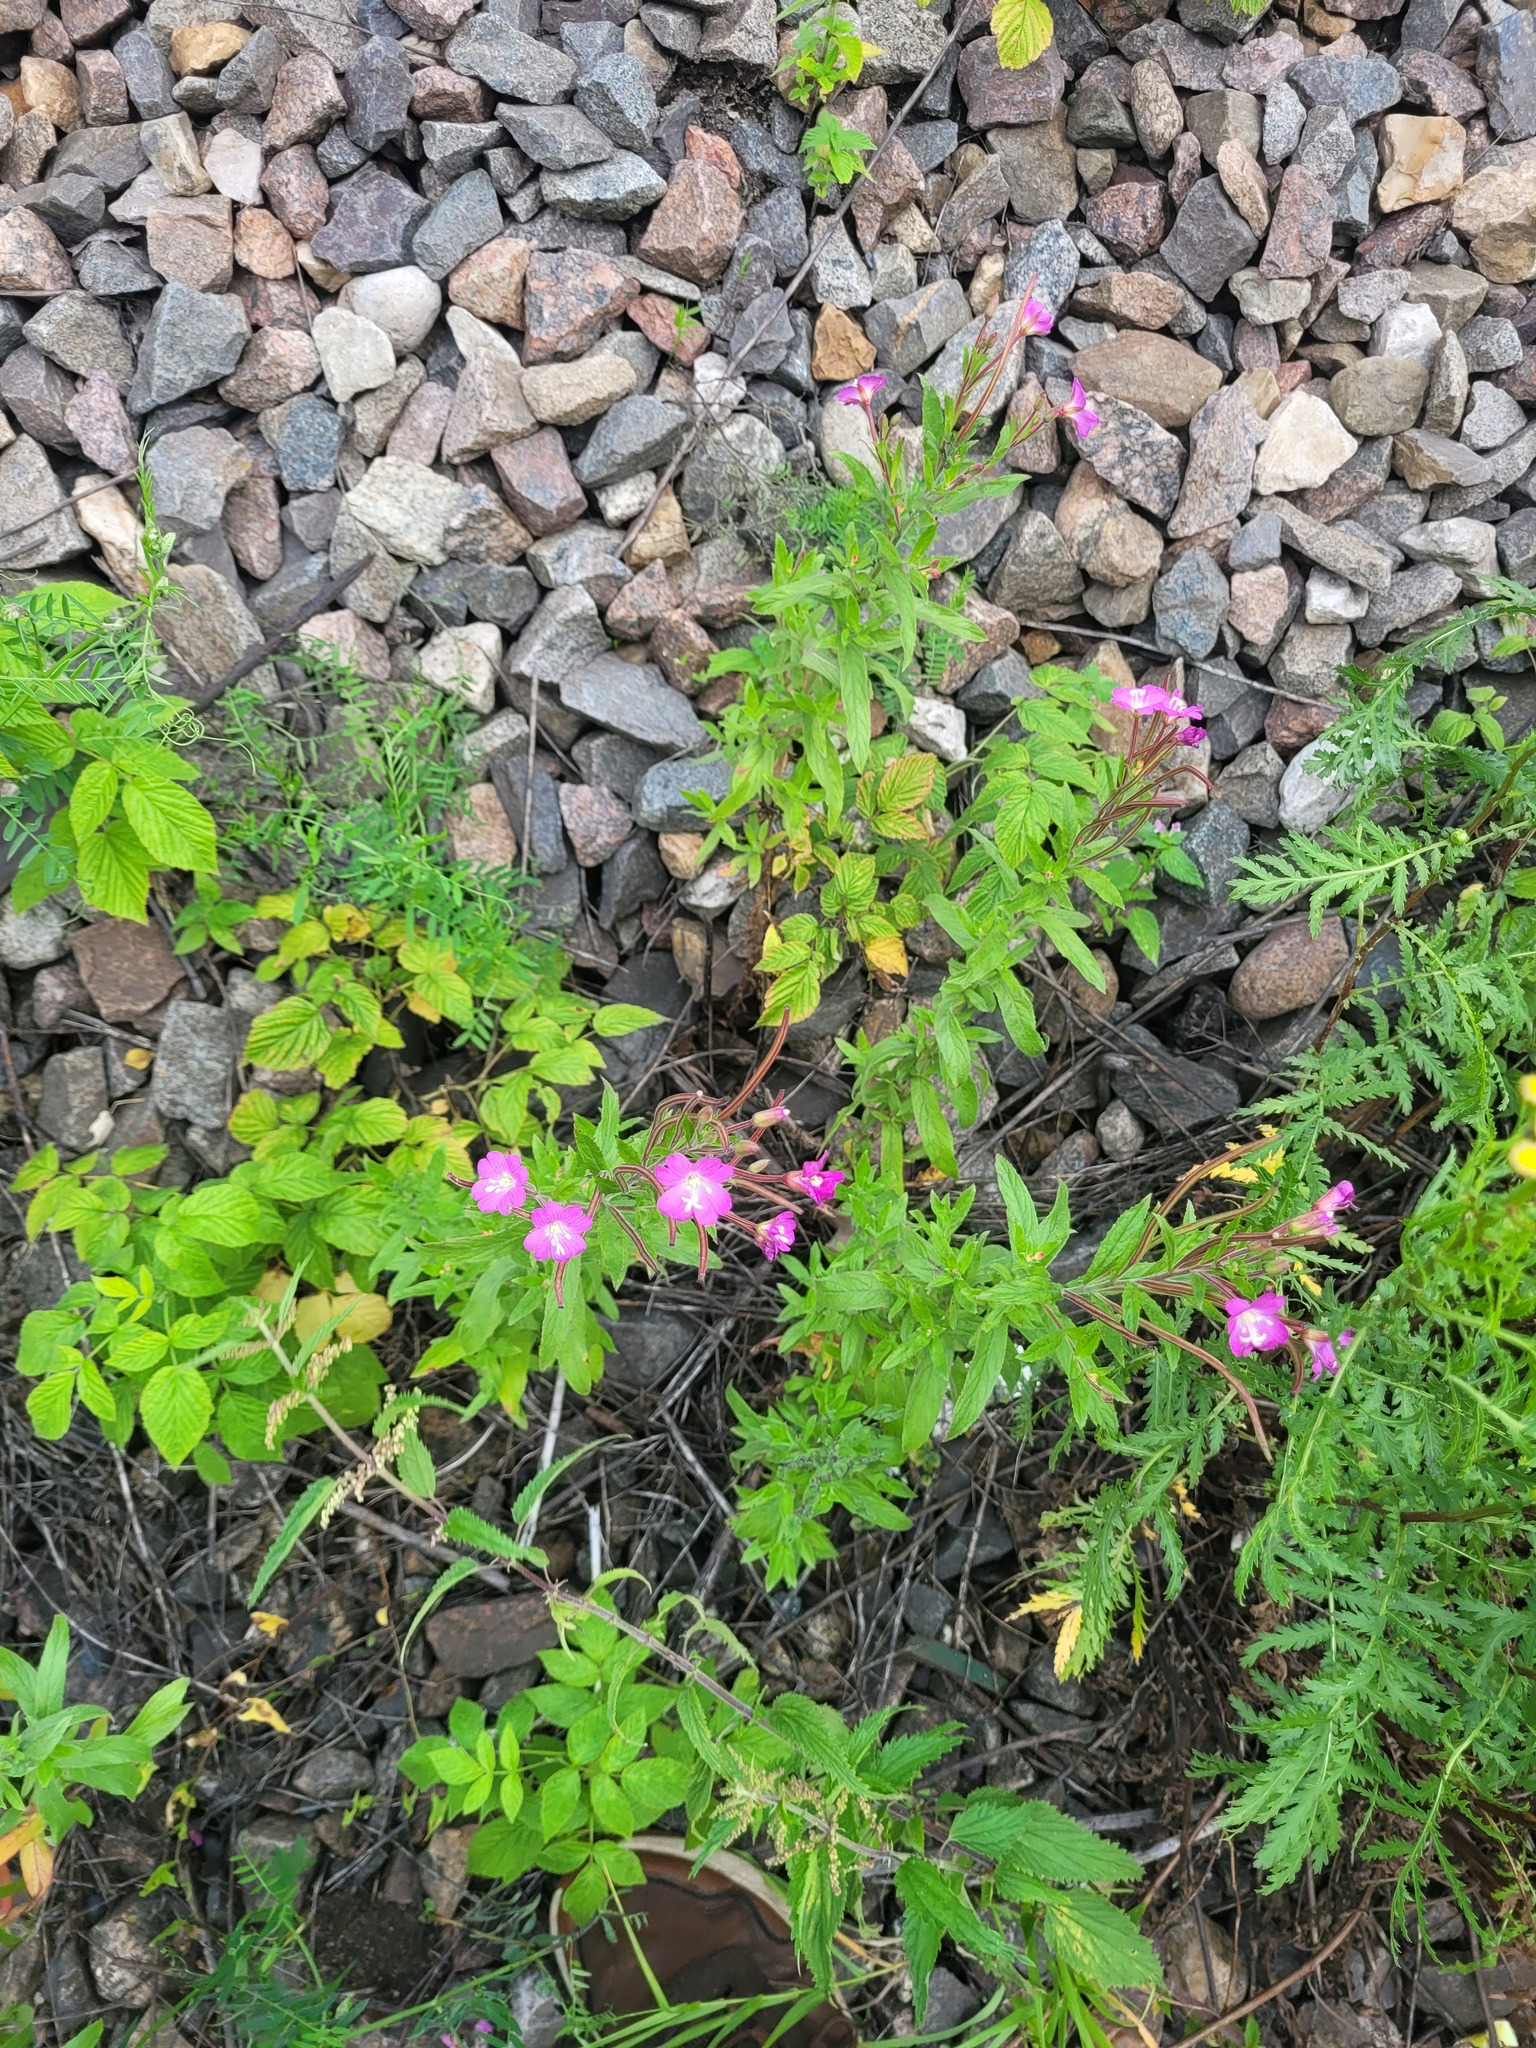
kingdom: Plantae
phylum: Tracheophyta
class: Magnoliopsida
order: Myrtales
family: Onagraceae
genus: Epilobium
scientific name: Epilobium hirsutum
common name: Great willowherb
